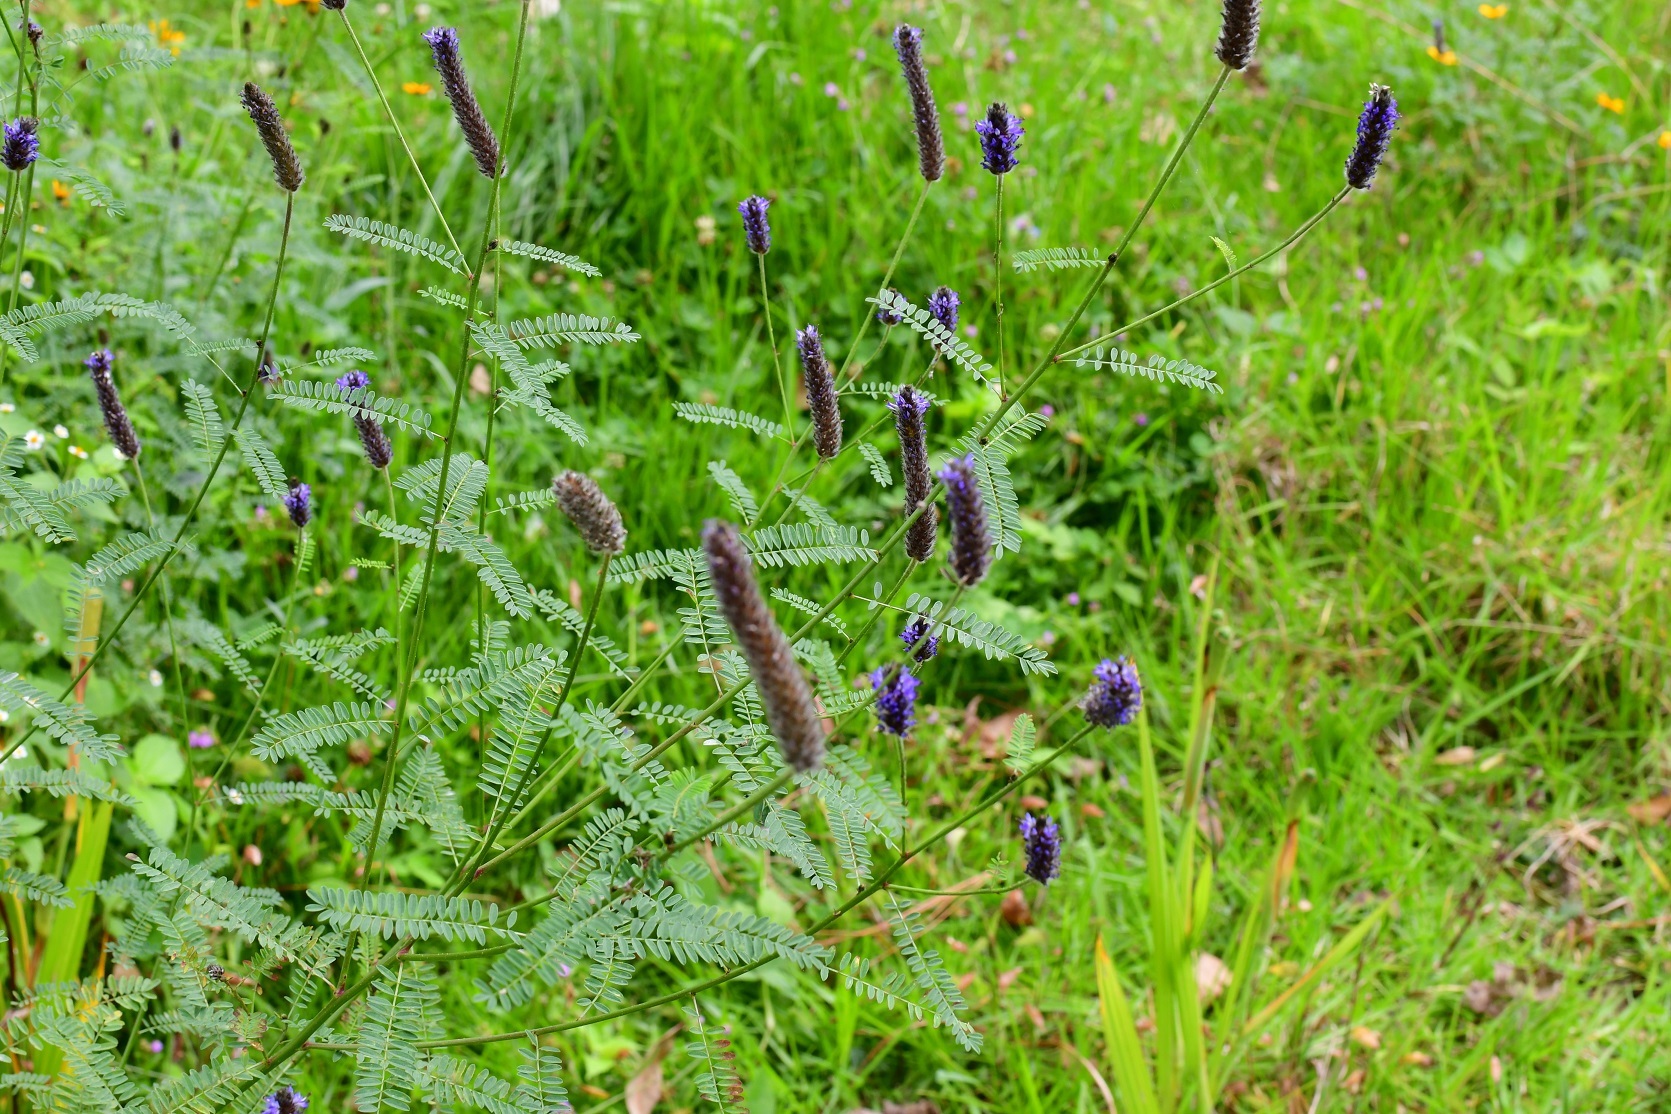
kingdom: Plantae
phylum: Tracheophyta
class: Magnoliopsida
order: Fabales
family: Fabaceae
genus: Dalea
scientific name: Dalea leporina
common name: Foxtail dalea
